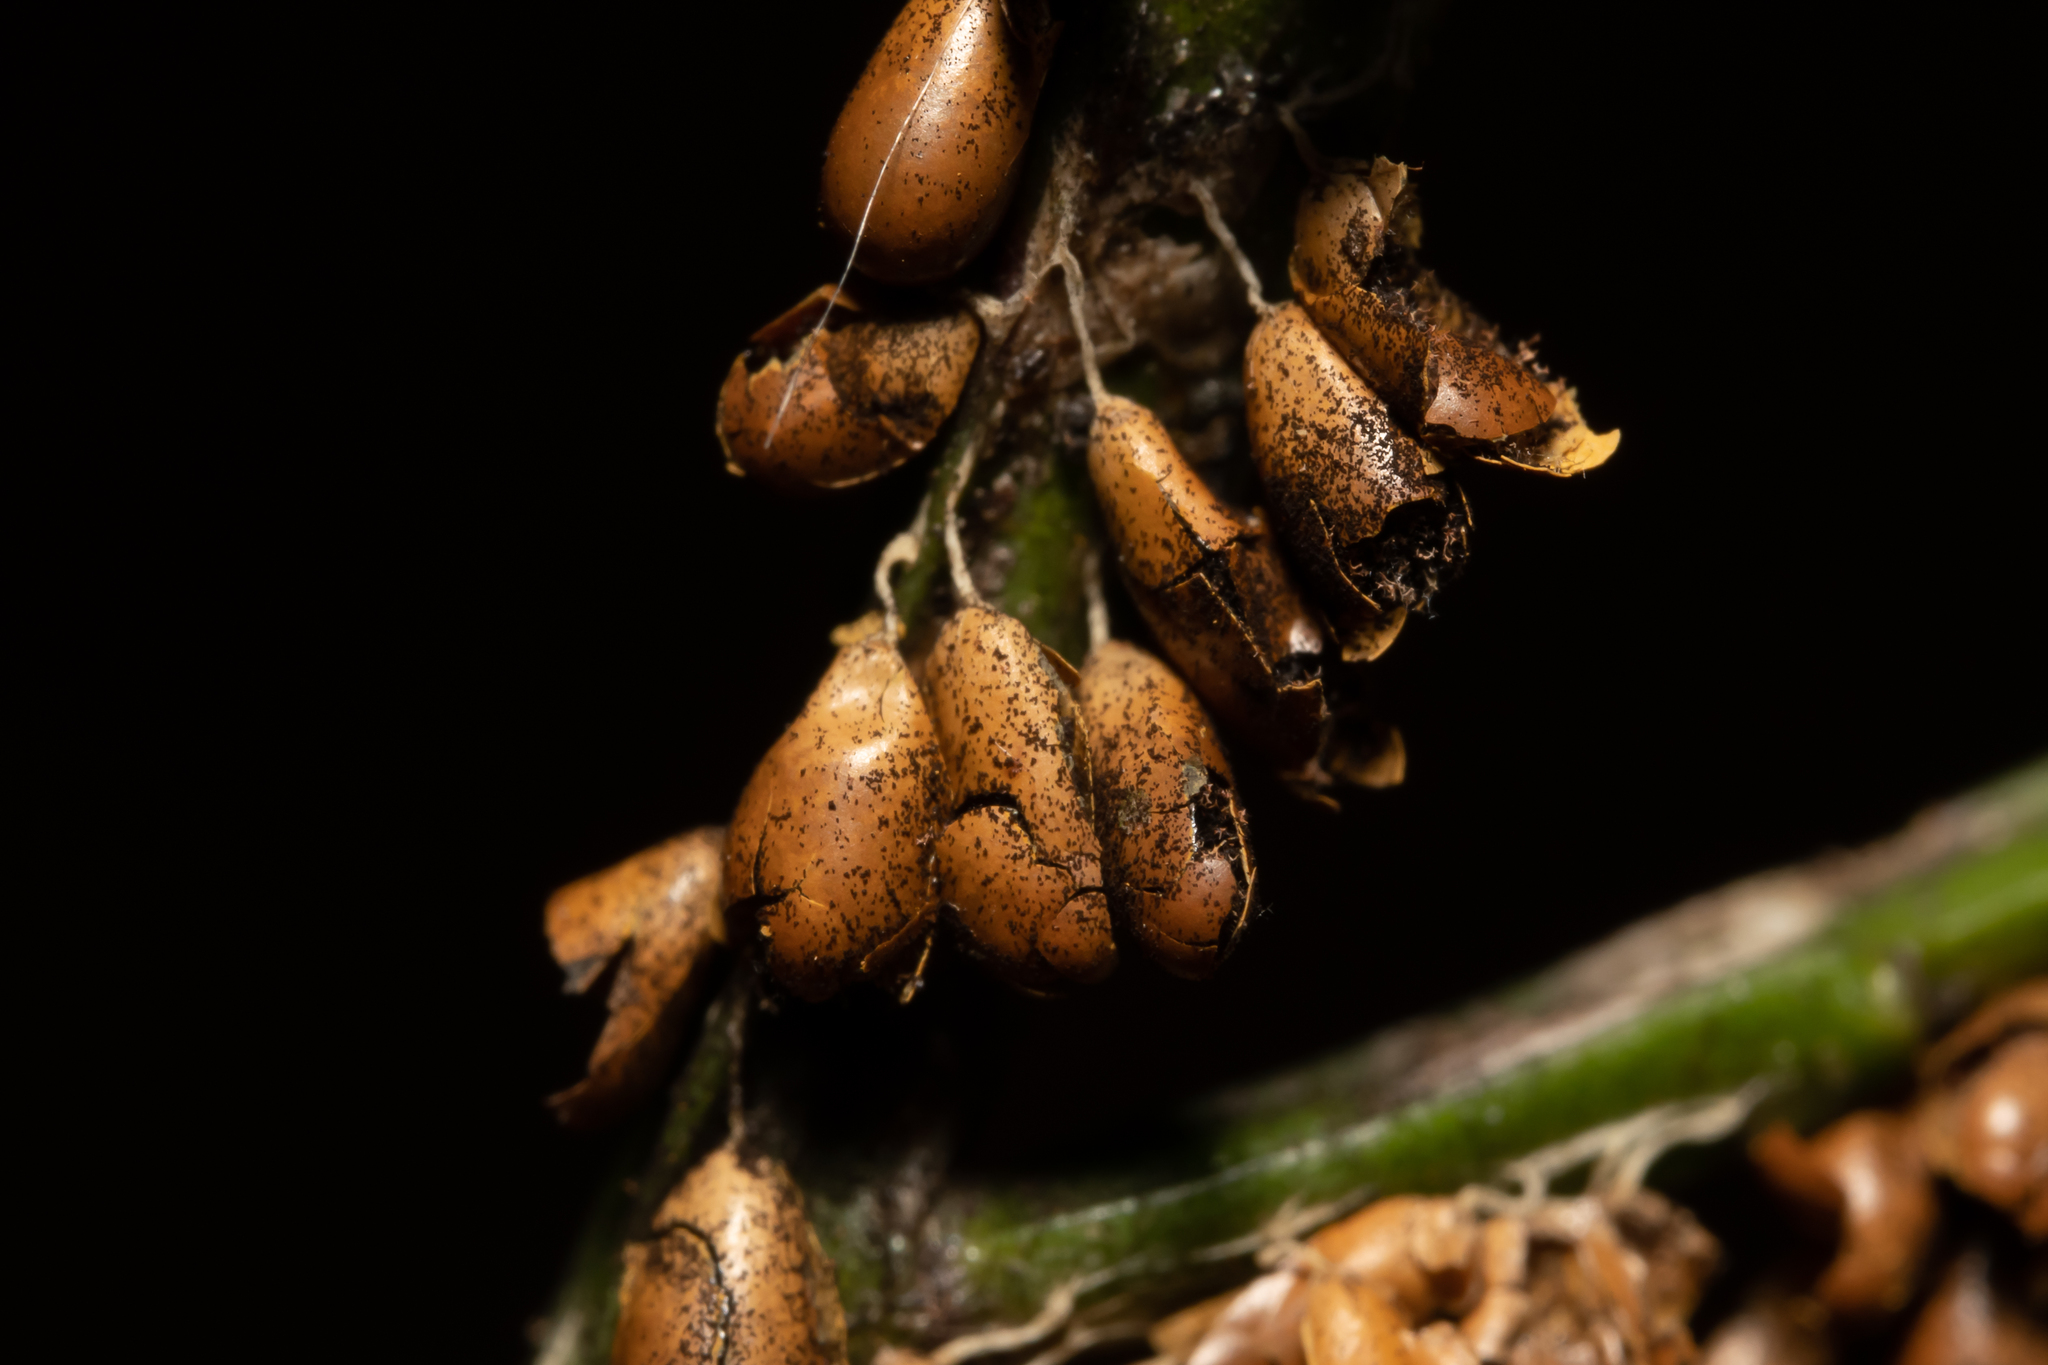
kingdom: Protozoa
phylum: Mycetozoa
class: Myxomycetes
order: Physarales
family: Physaraceae
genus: Leocarpus
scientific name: Leocarpus fragilis
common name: Insect-egg slime
